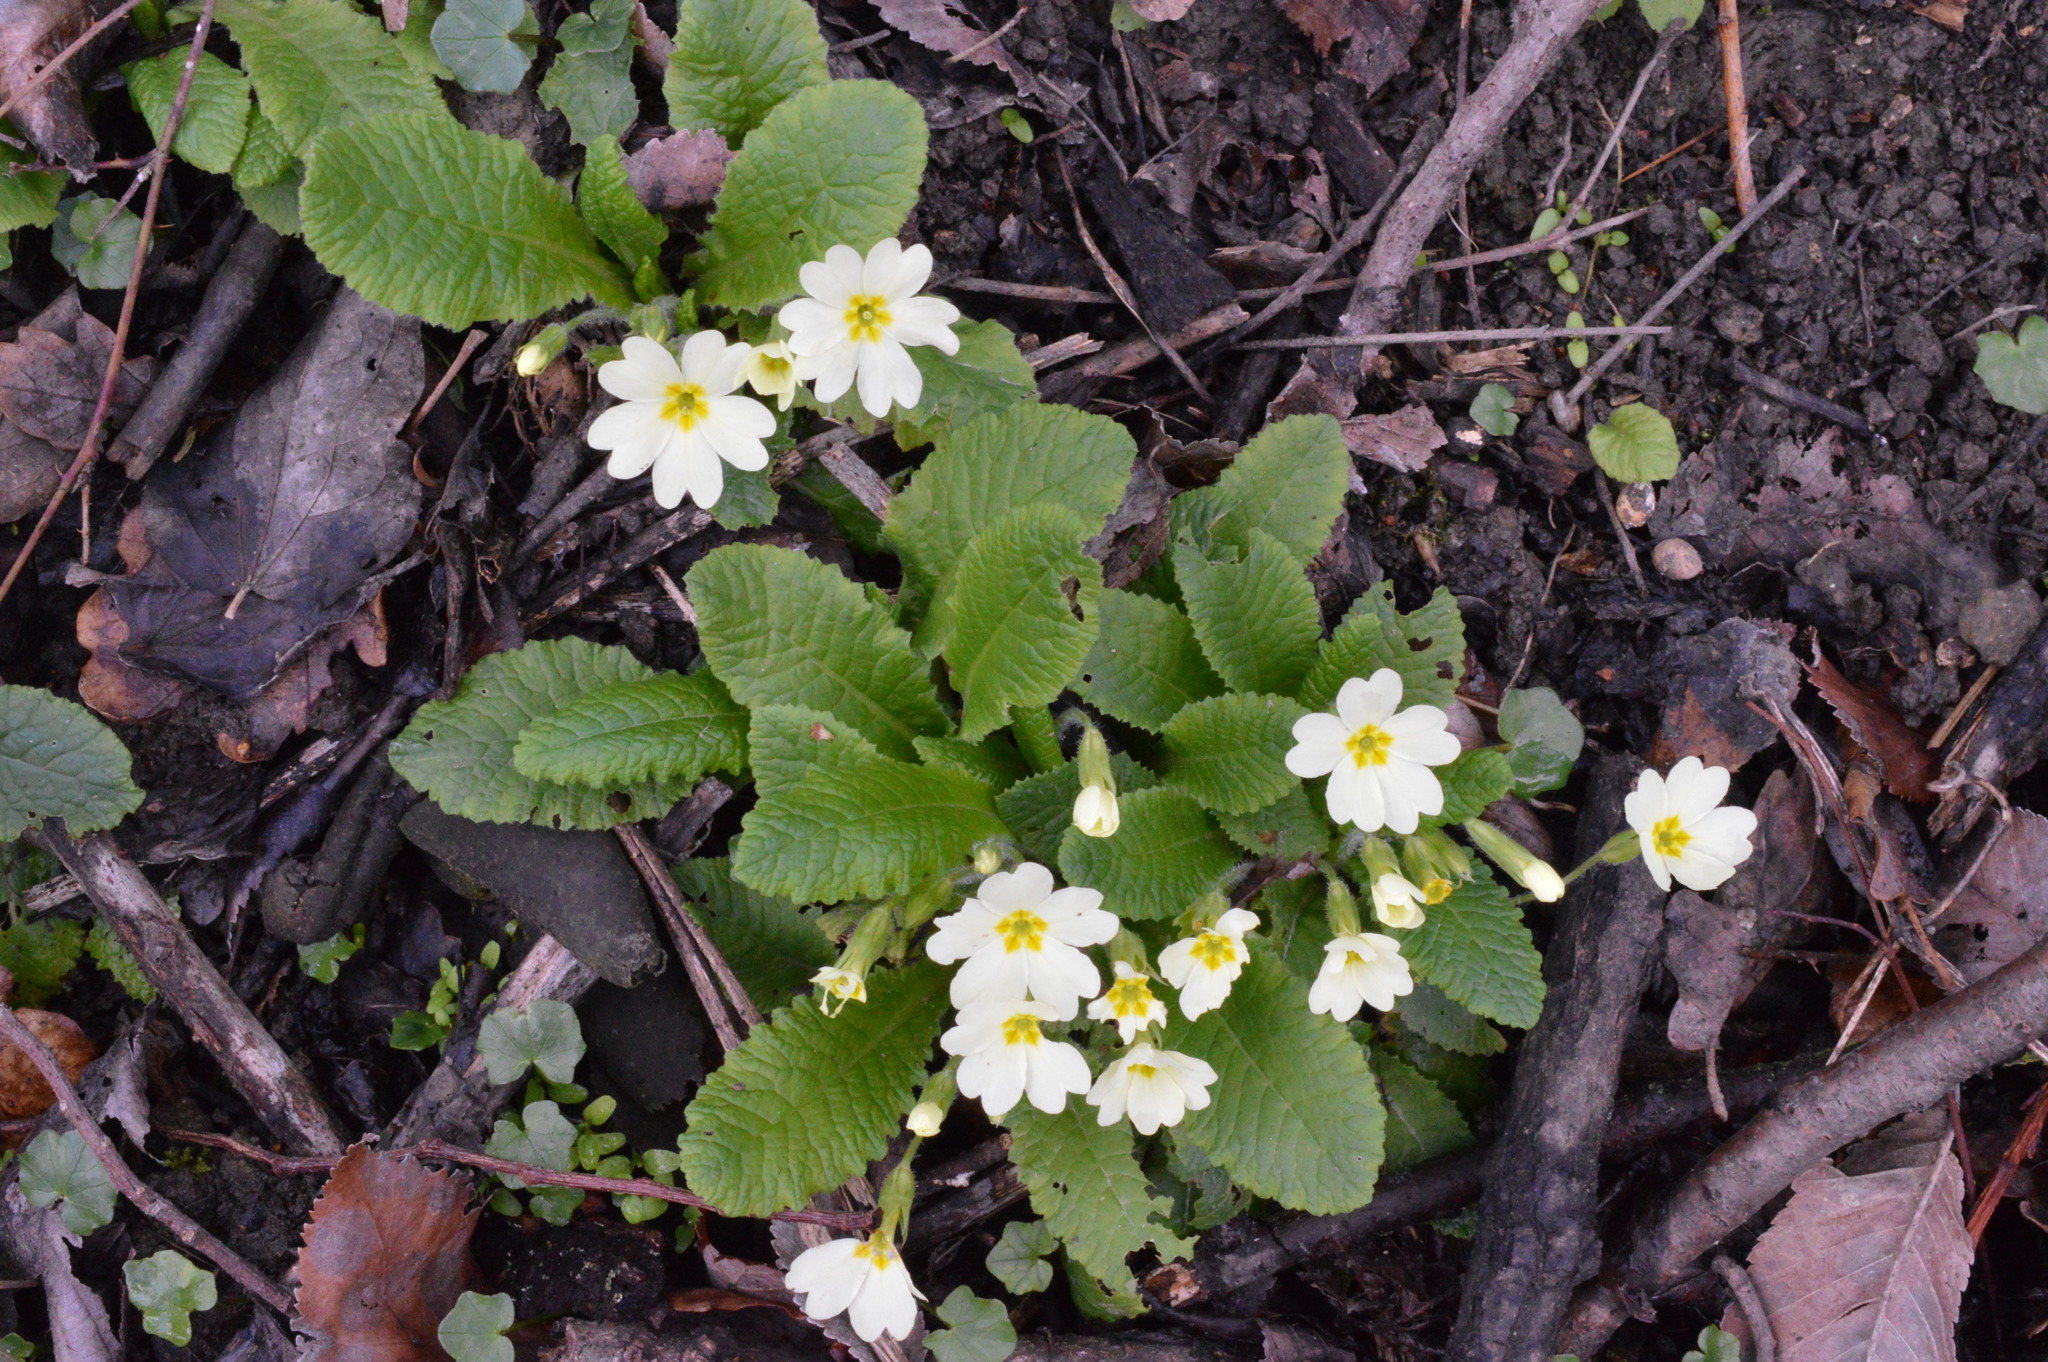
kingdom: Plantae
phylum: Tracheophyta
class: Magnoliopsida
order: Ericales
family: Primulaceae
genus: Primula
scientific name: Primula vulgaris
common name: Primrose
